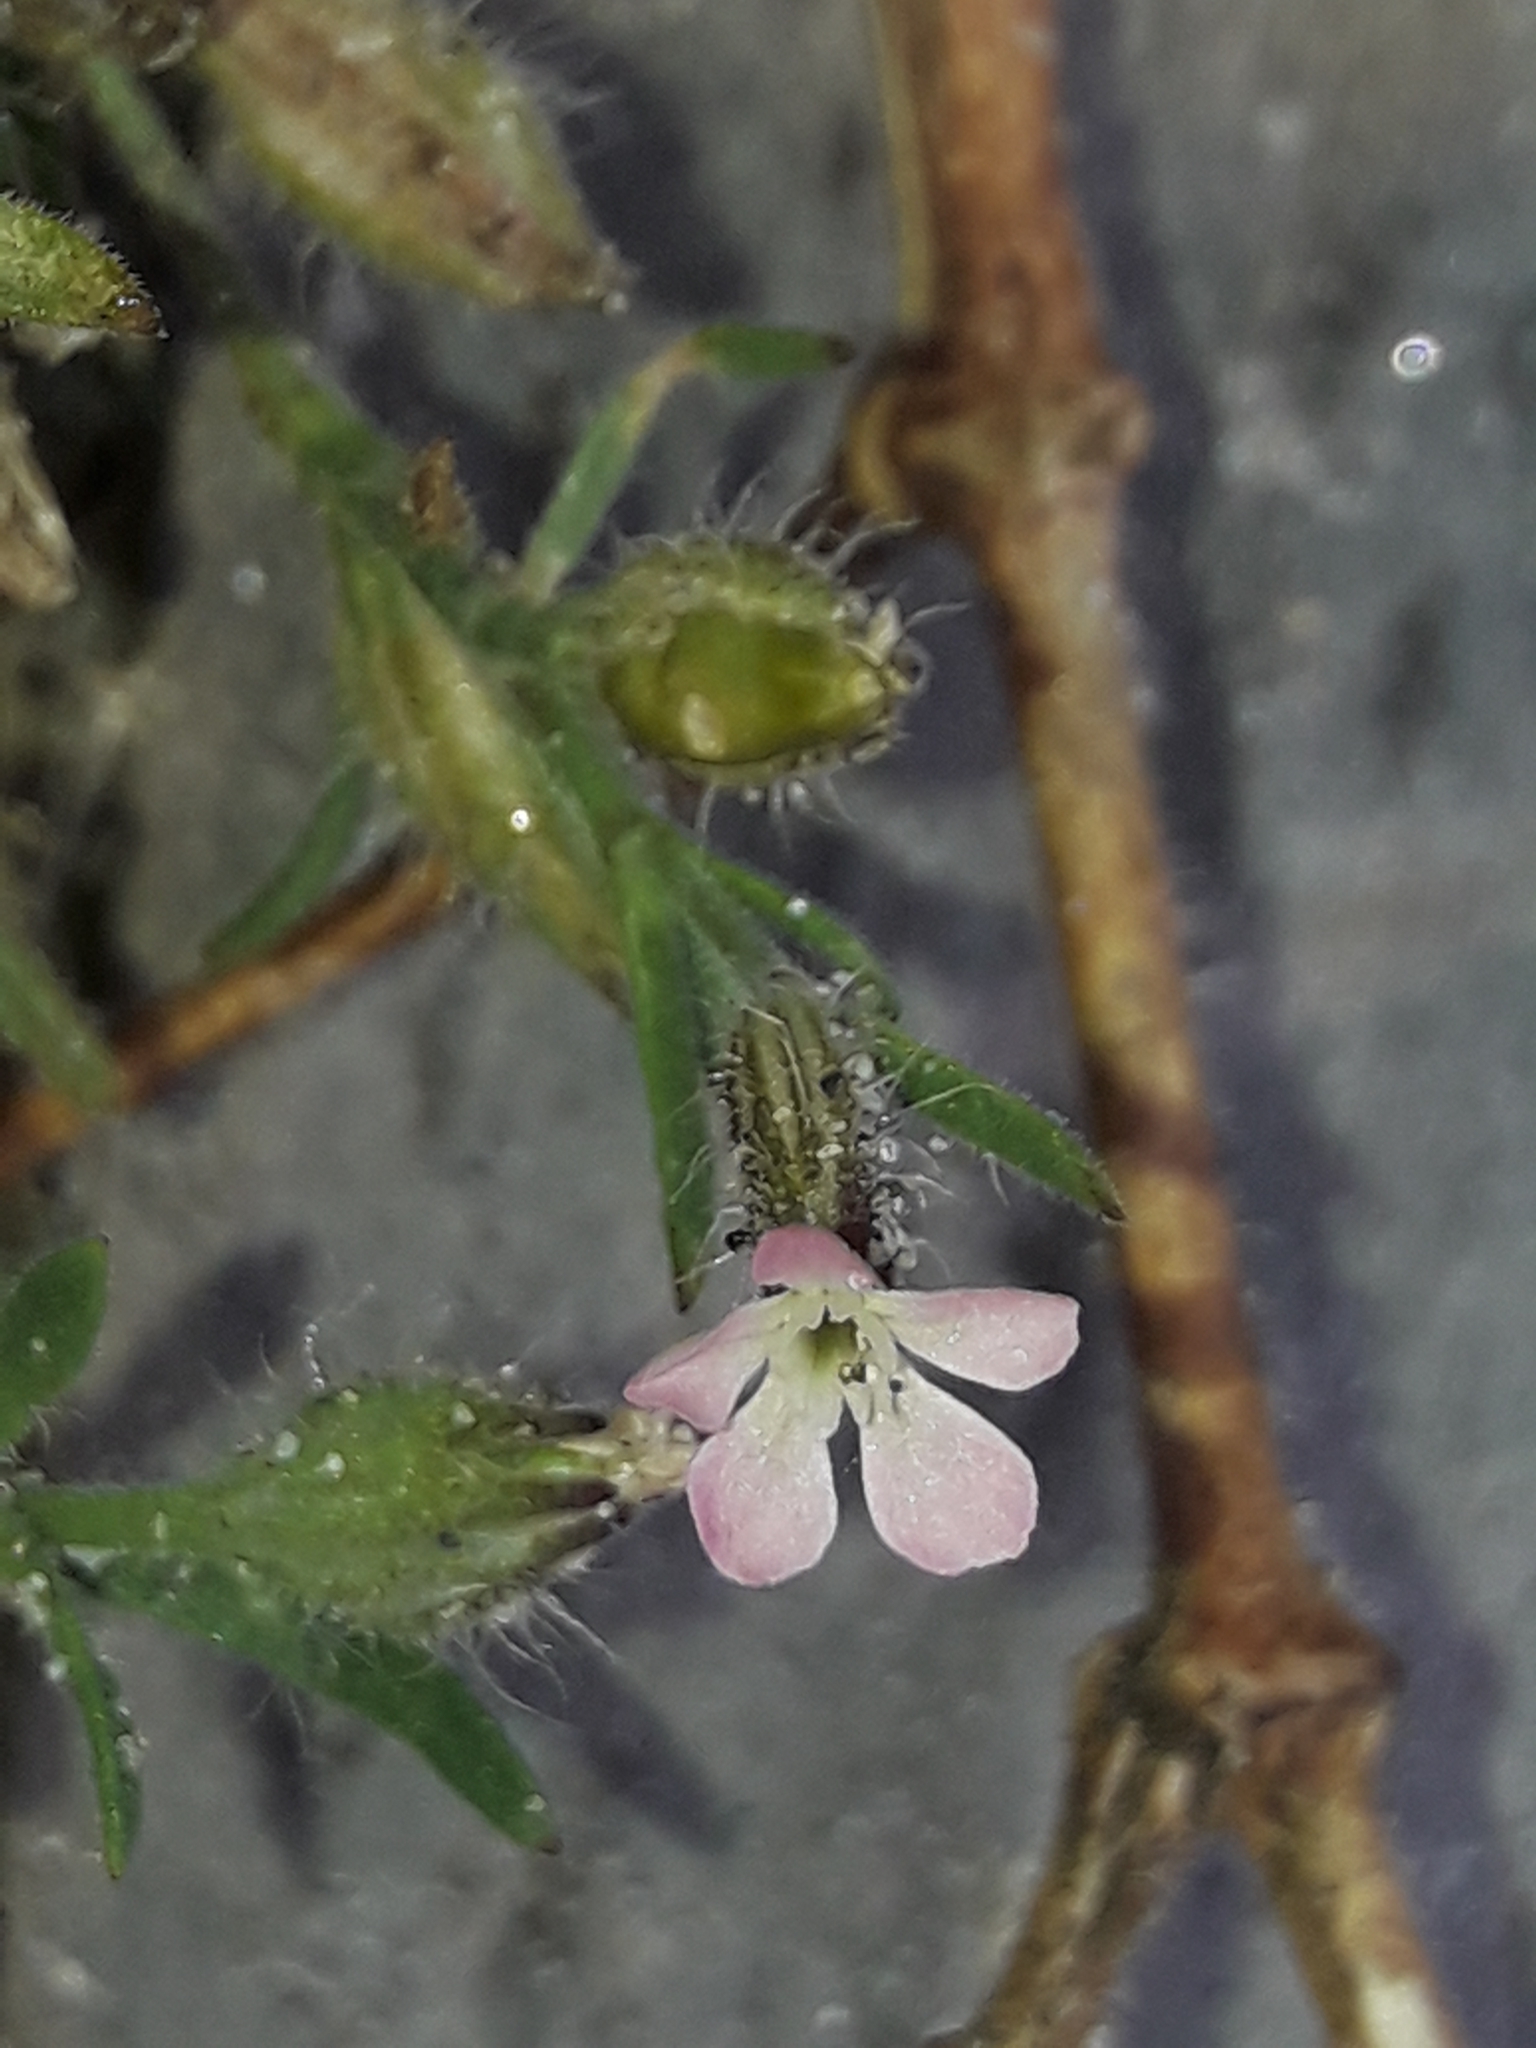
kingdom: Plantae
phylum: Tracheophyta
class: Magnoliopsida
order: Caryophyllales
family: Caryophyllaceae
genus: Silene
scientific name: Silene gallica
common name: Small-flowered catchfly
